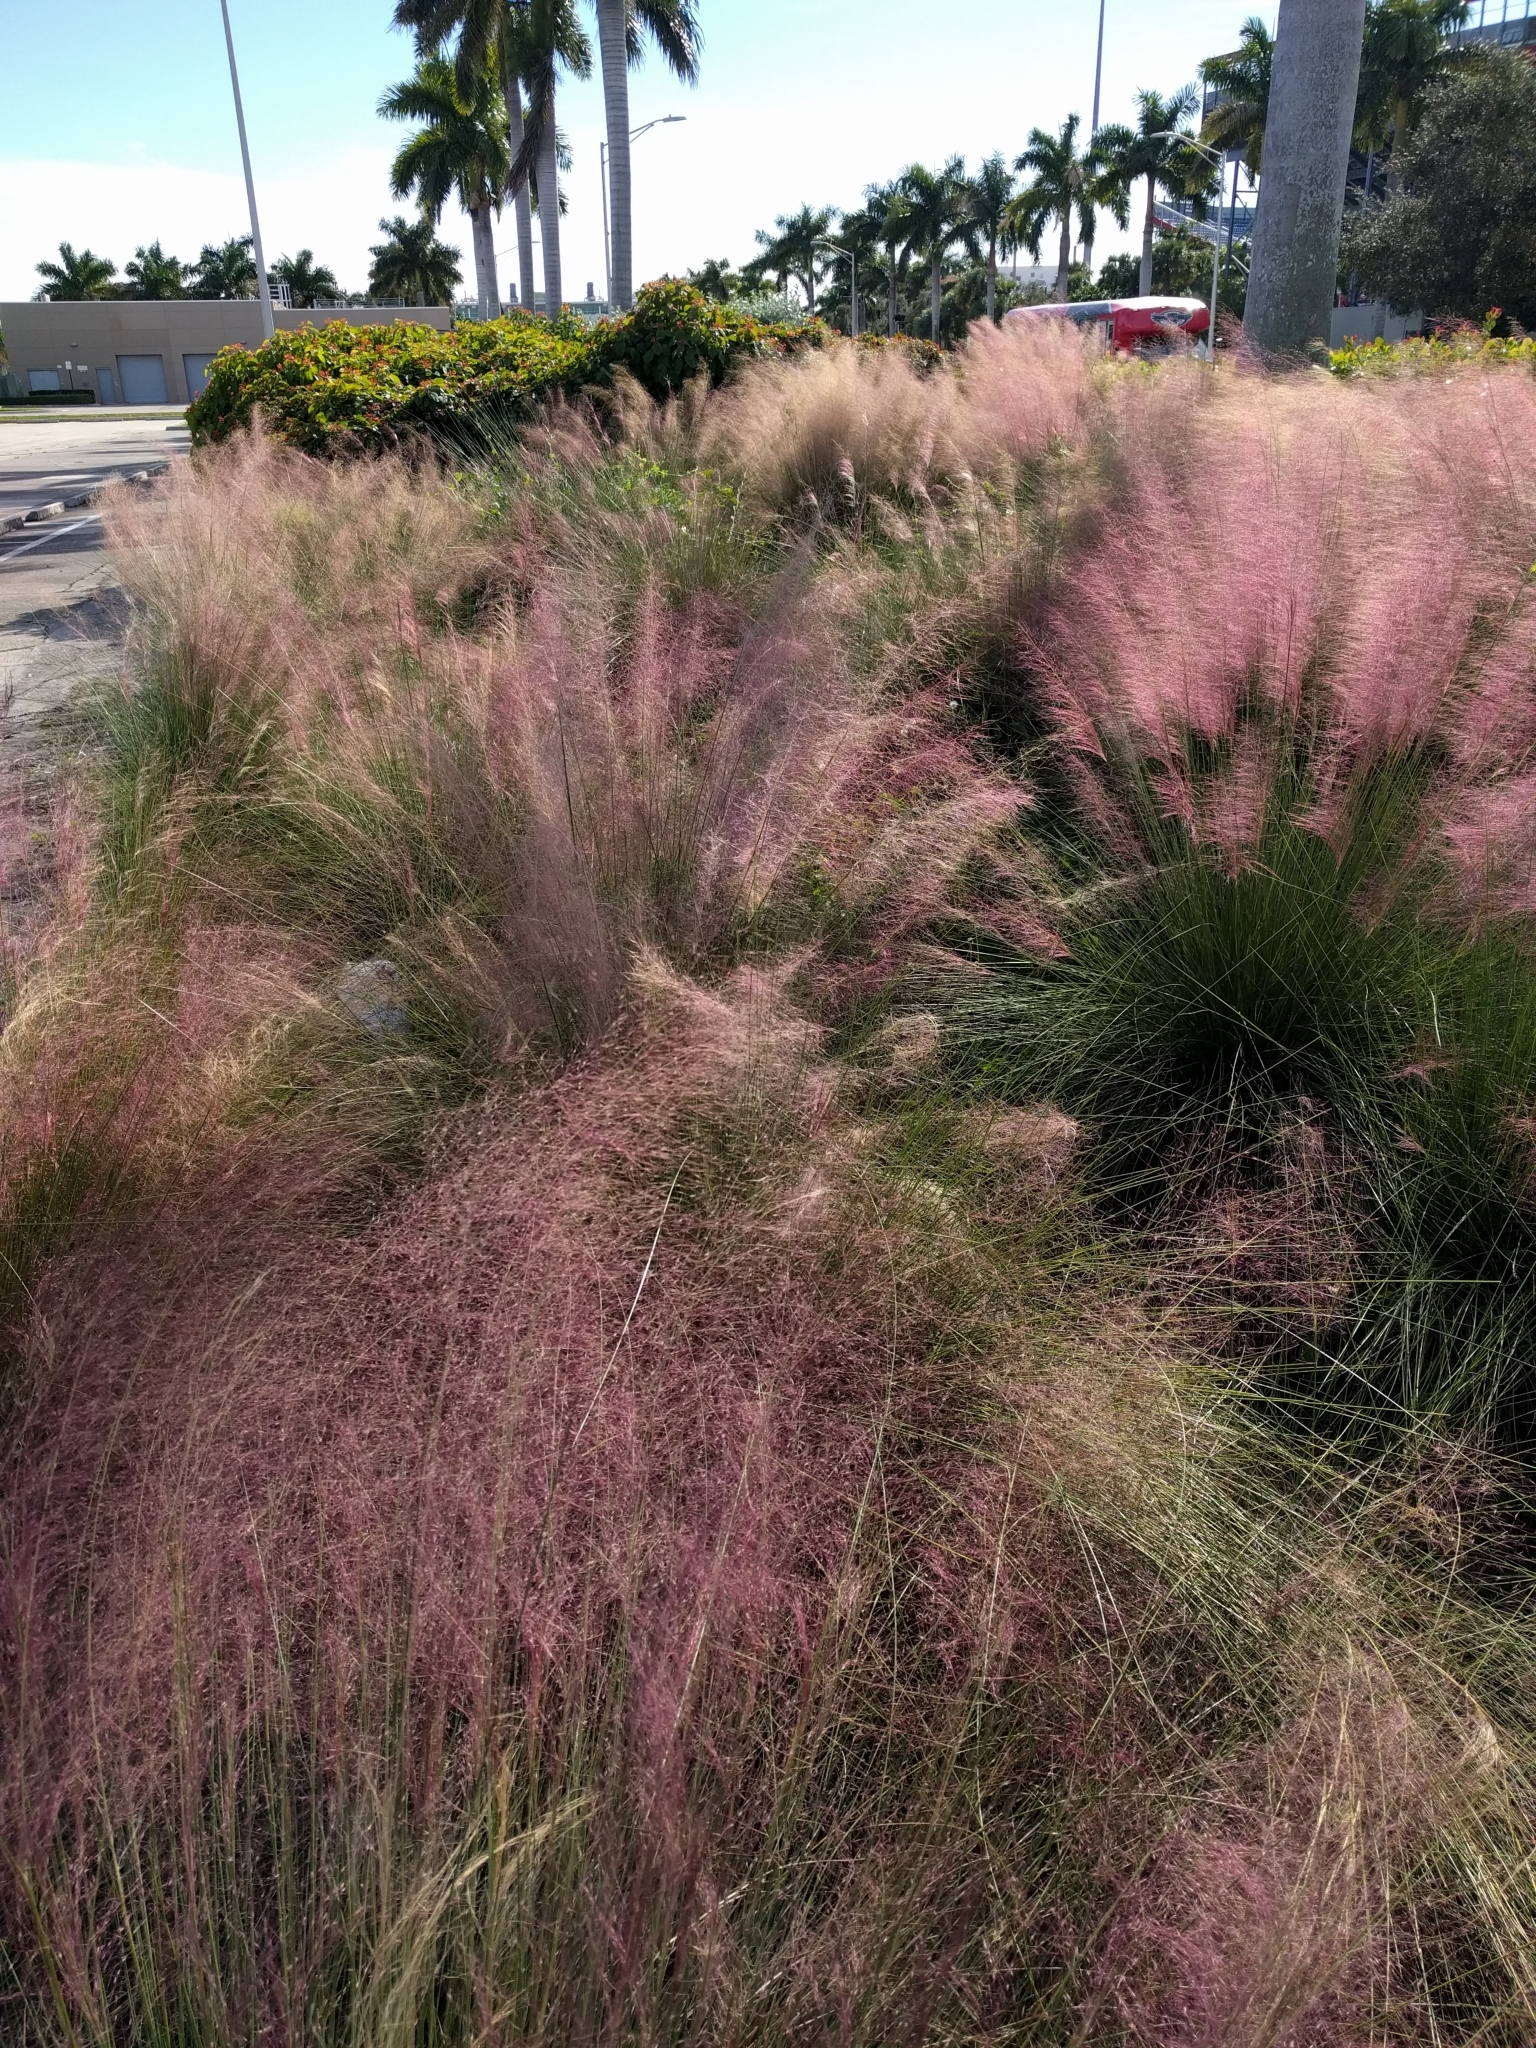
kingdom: Plantae
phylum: Tracheophyta
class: Liliopsida
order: Poales
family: Poaceae
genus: Muhlenbergia
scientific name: Muhlenbergia capillaris
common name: Purple grass
